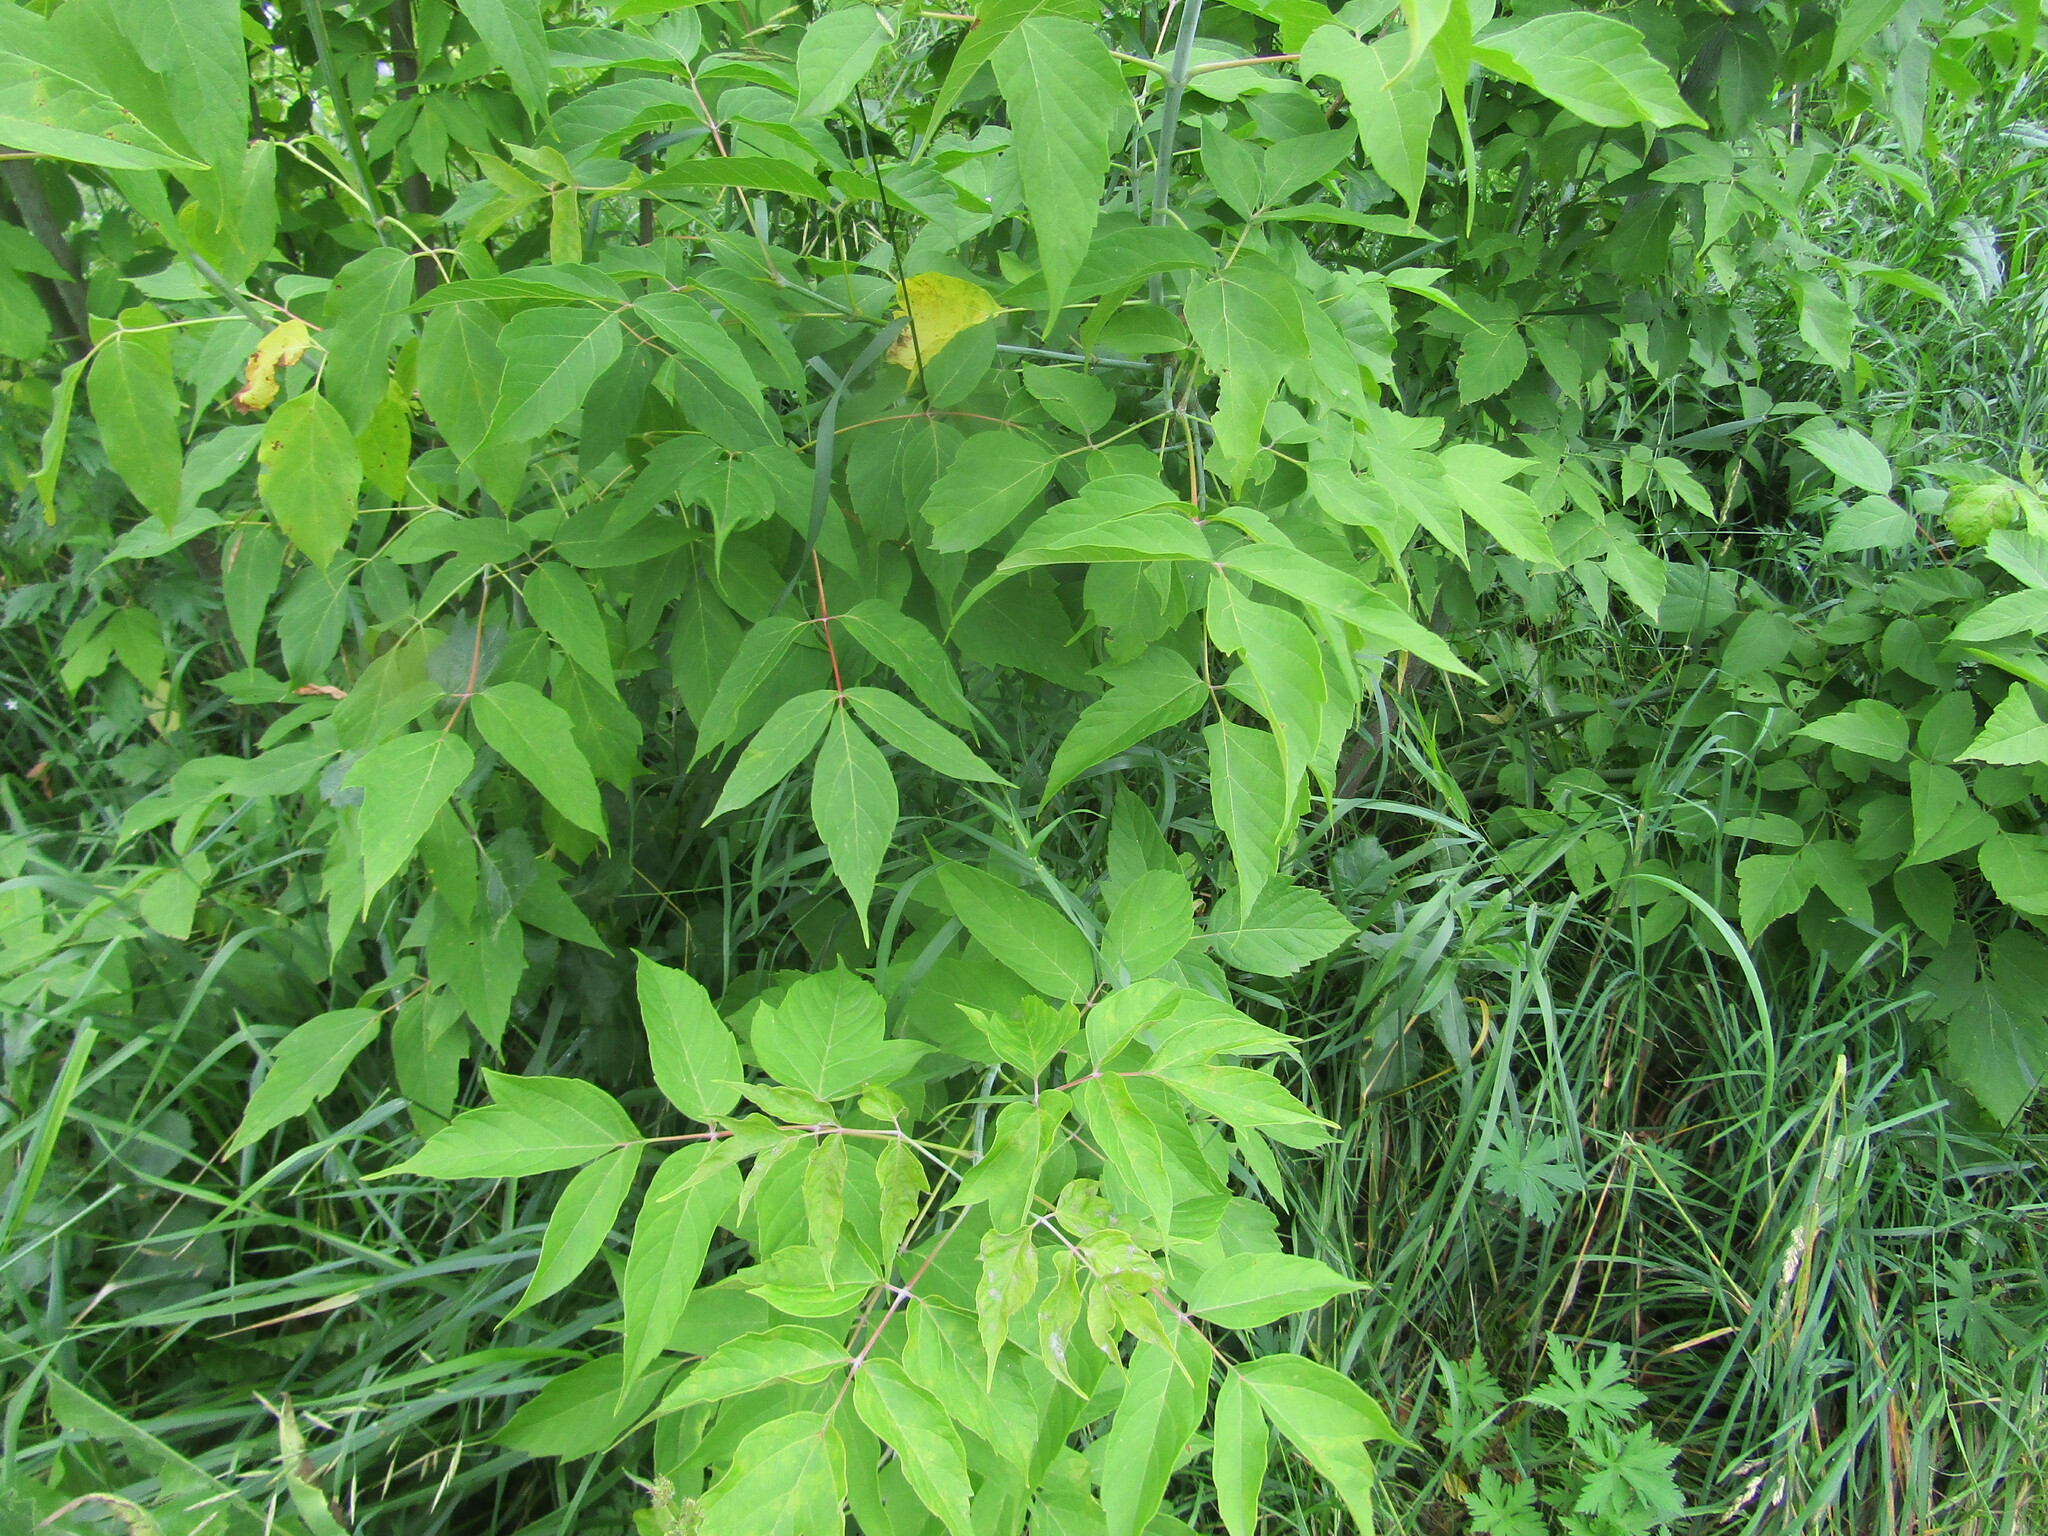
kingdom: Plantae
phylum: Tracheophyta
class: Magnoliopsida
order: Sapindales
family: Sapindaceae
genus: Acer
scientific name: Acer negundo
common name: Ashleaf maple
